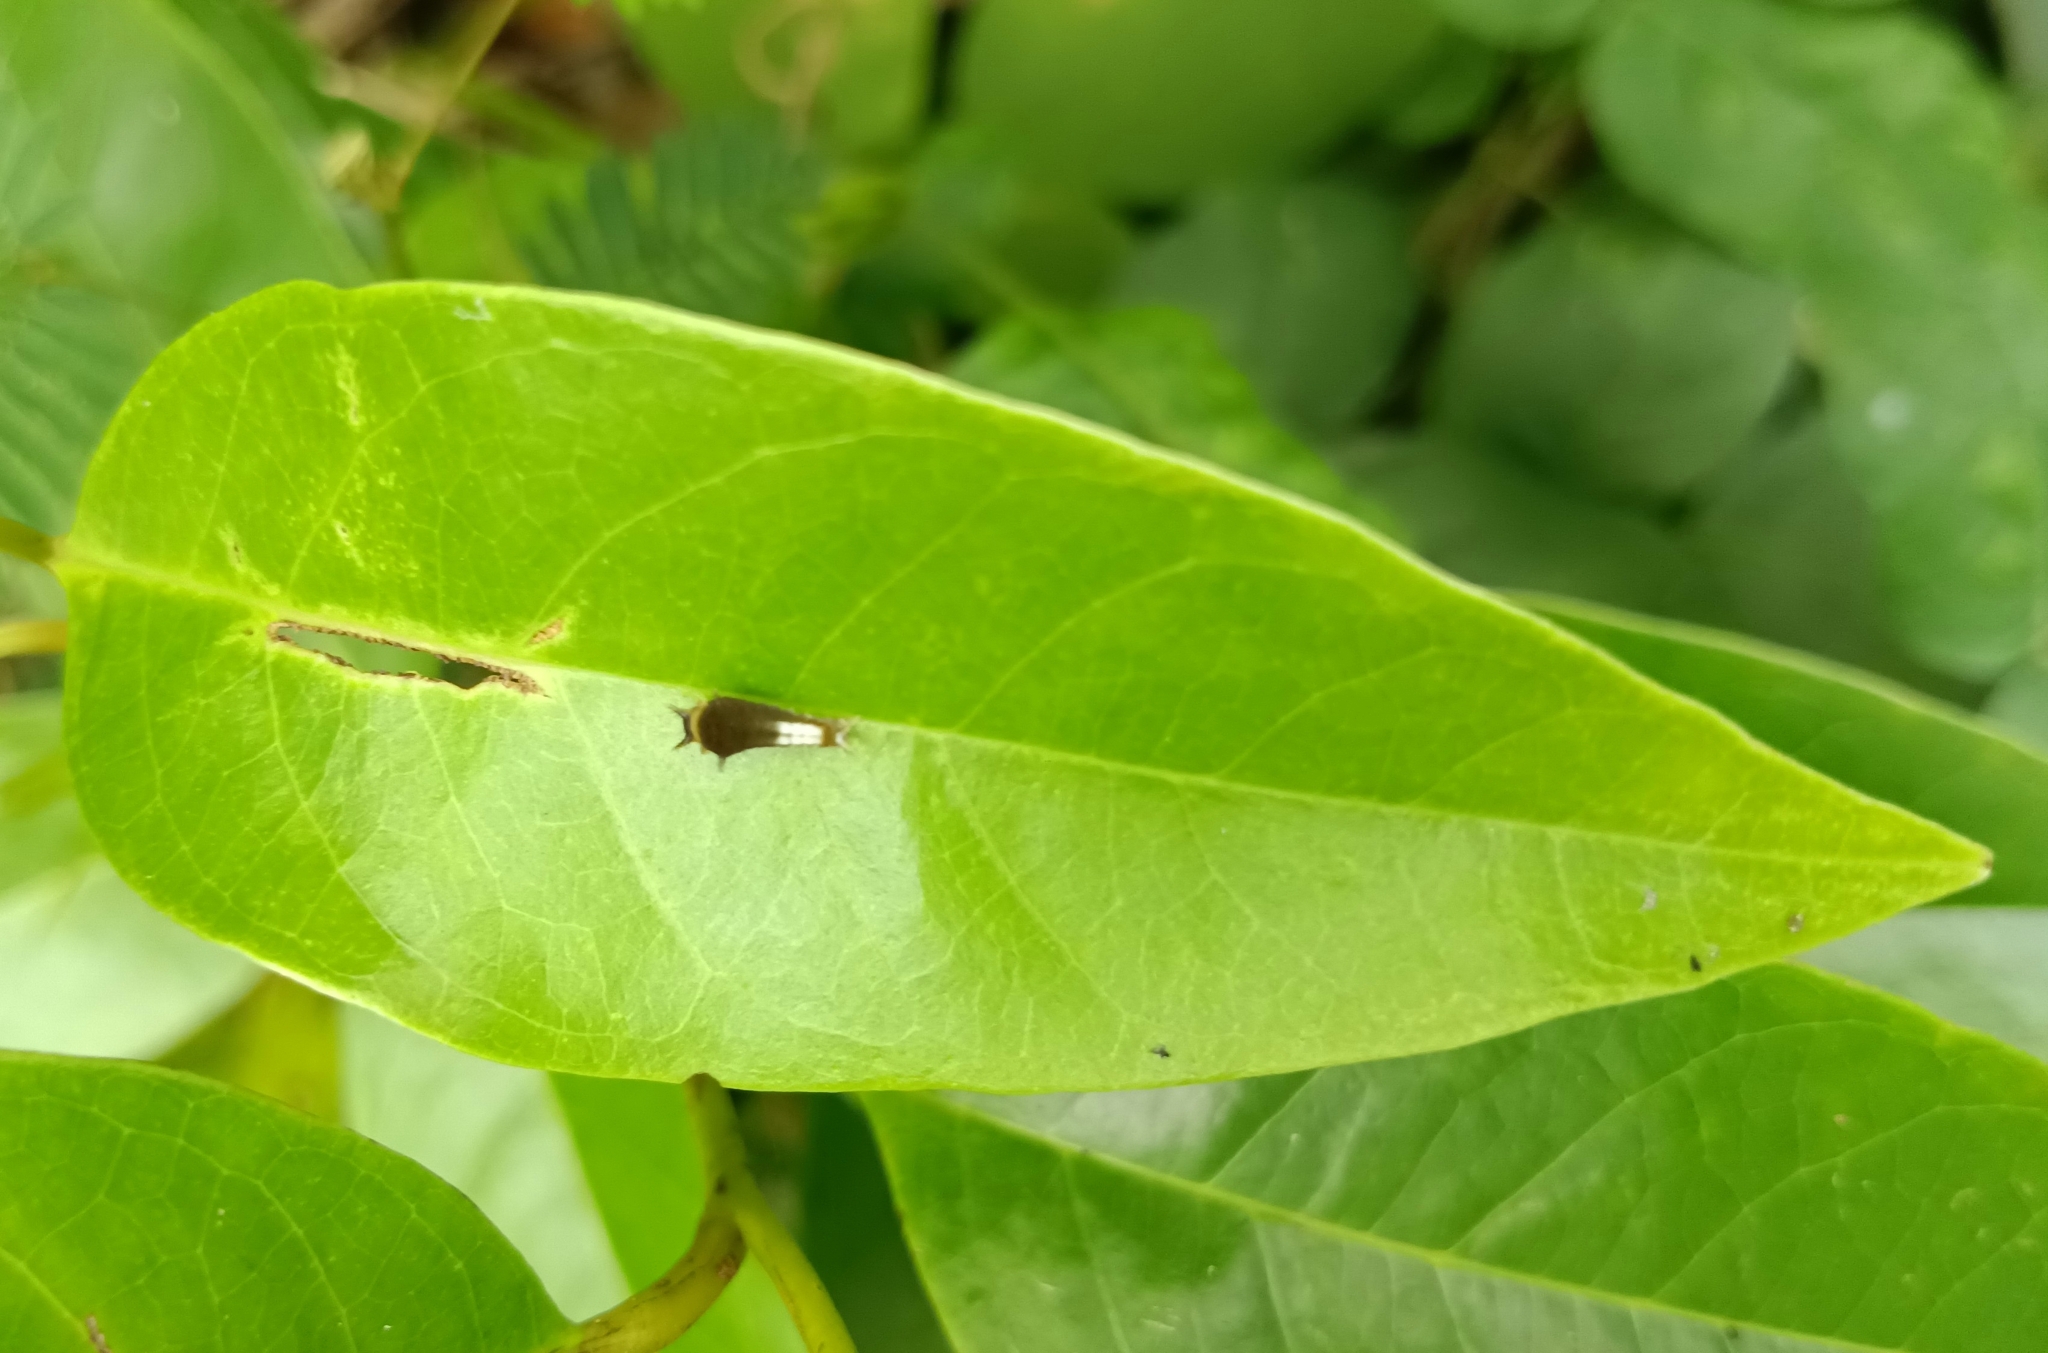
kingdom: Animalia
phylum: Arthropoda
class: Insecta
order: Lepidoptera
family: Papilionidae
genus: Graphium
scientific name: Graphium agamemnon
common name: Tailed jay
